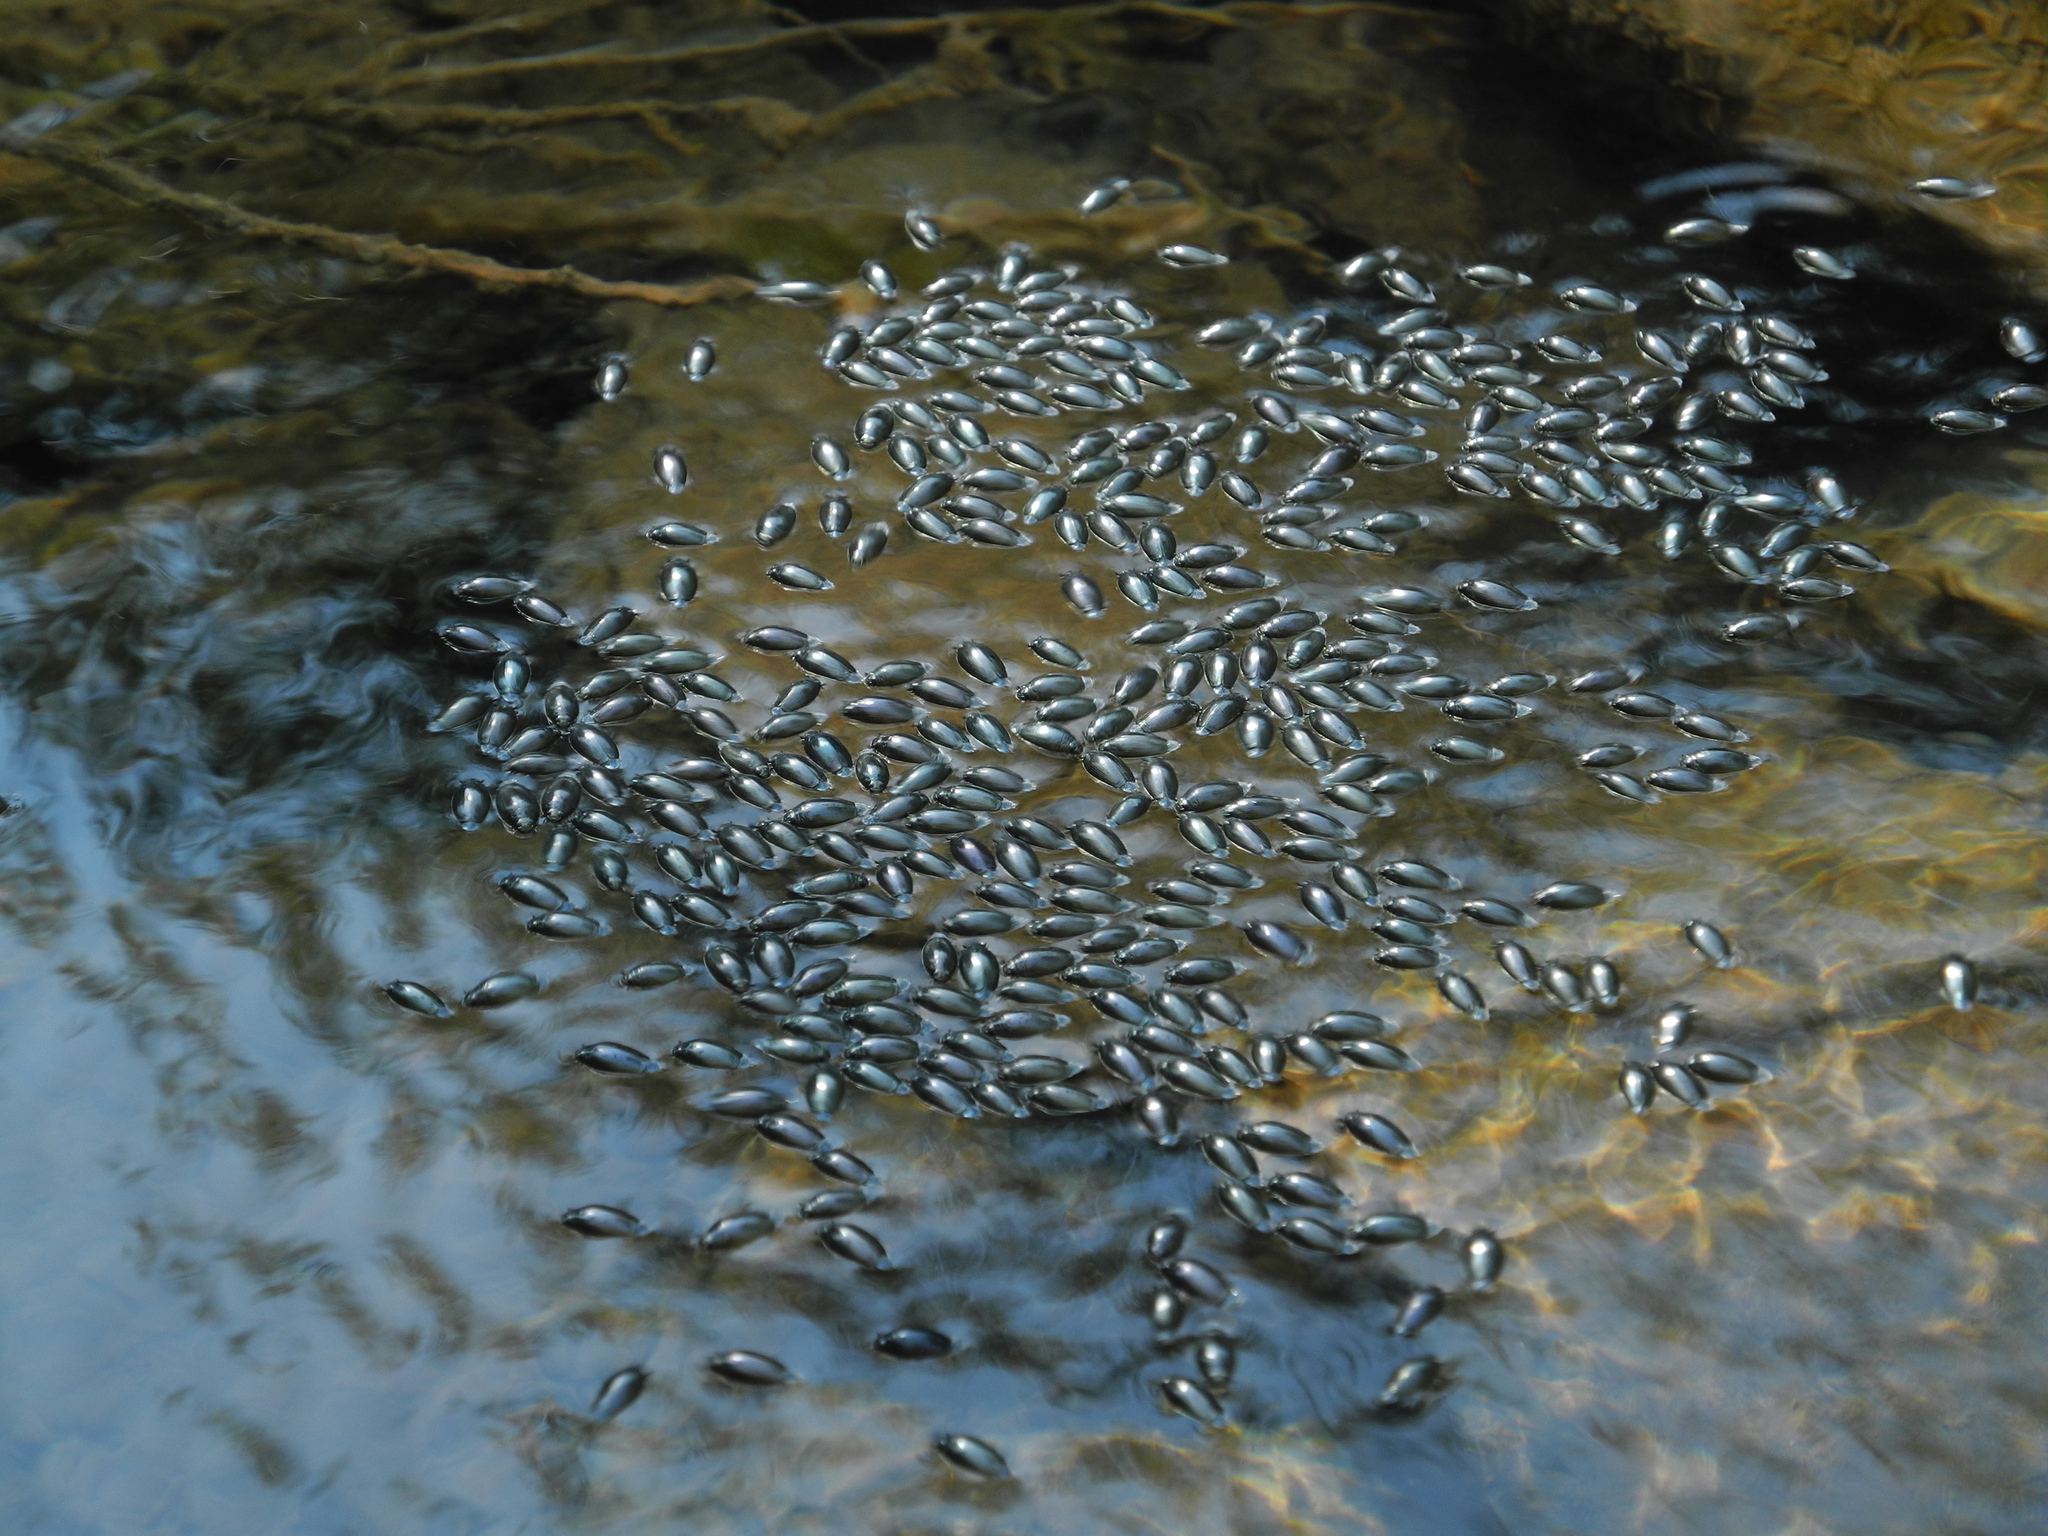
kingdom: Animalia
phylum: Arthropoda
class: Insecta
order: Coleoptera
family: Gyrinidae
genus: Gyrinus
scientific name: Gyrinus
